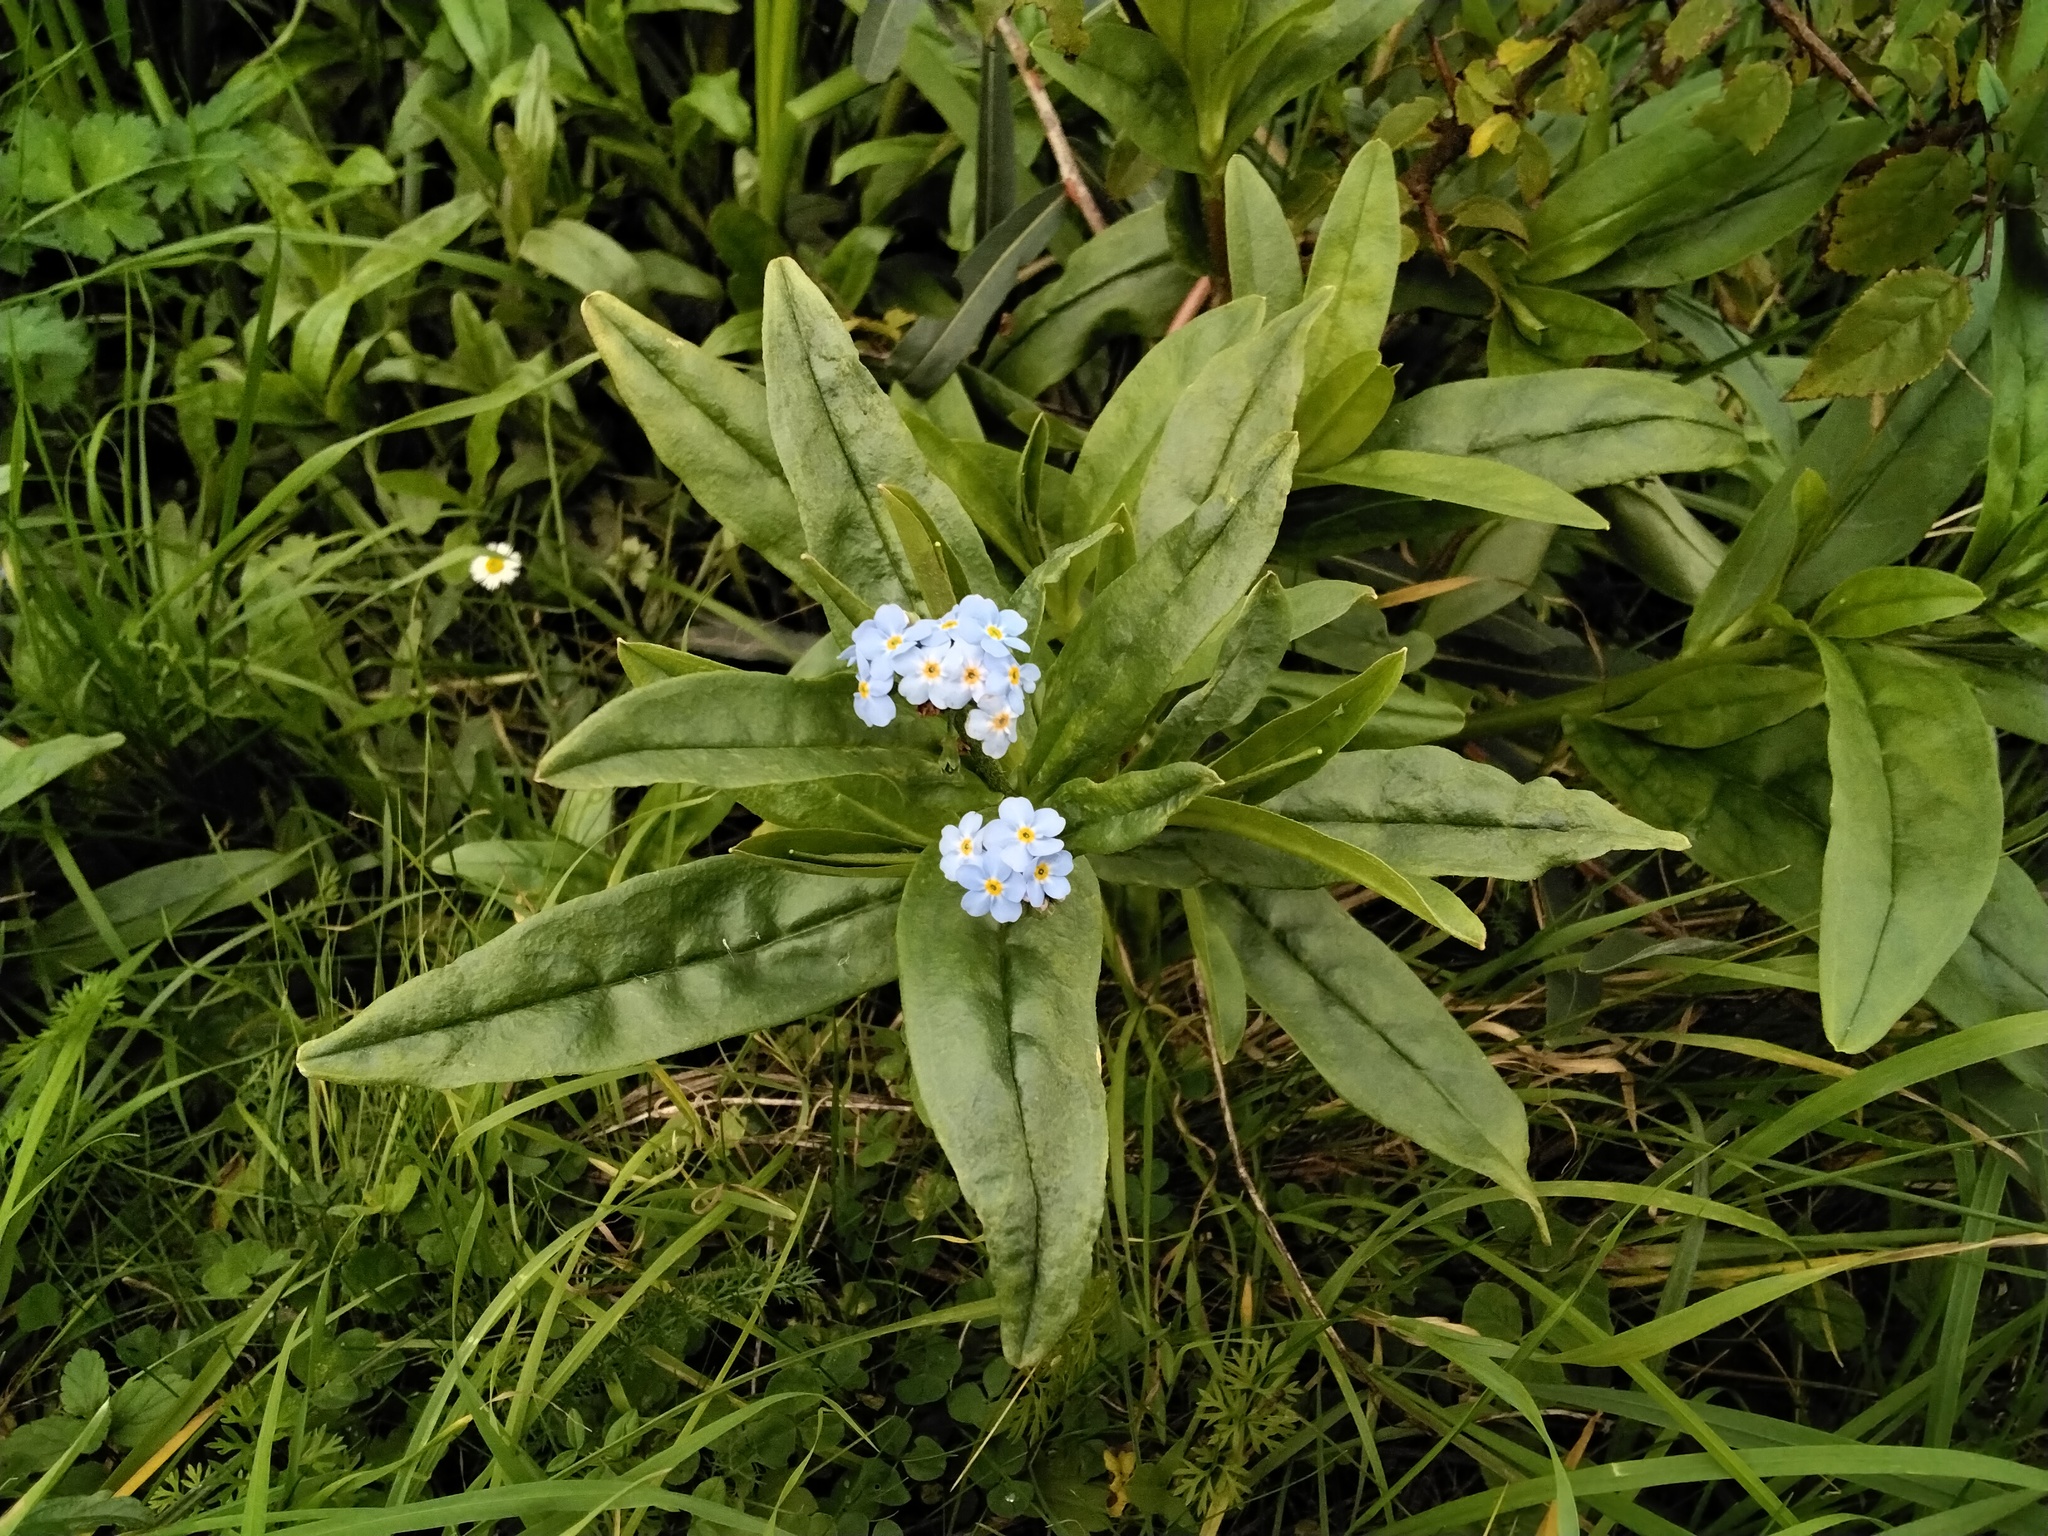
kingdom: Plantae
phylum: Tracheophyta
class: Magnoliopsida
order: Boraginales
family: Boraginaceae
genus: Myosotis
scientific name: Myosotis scorpioides
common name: Water forget-me-not
